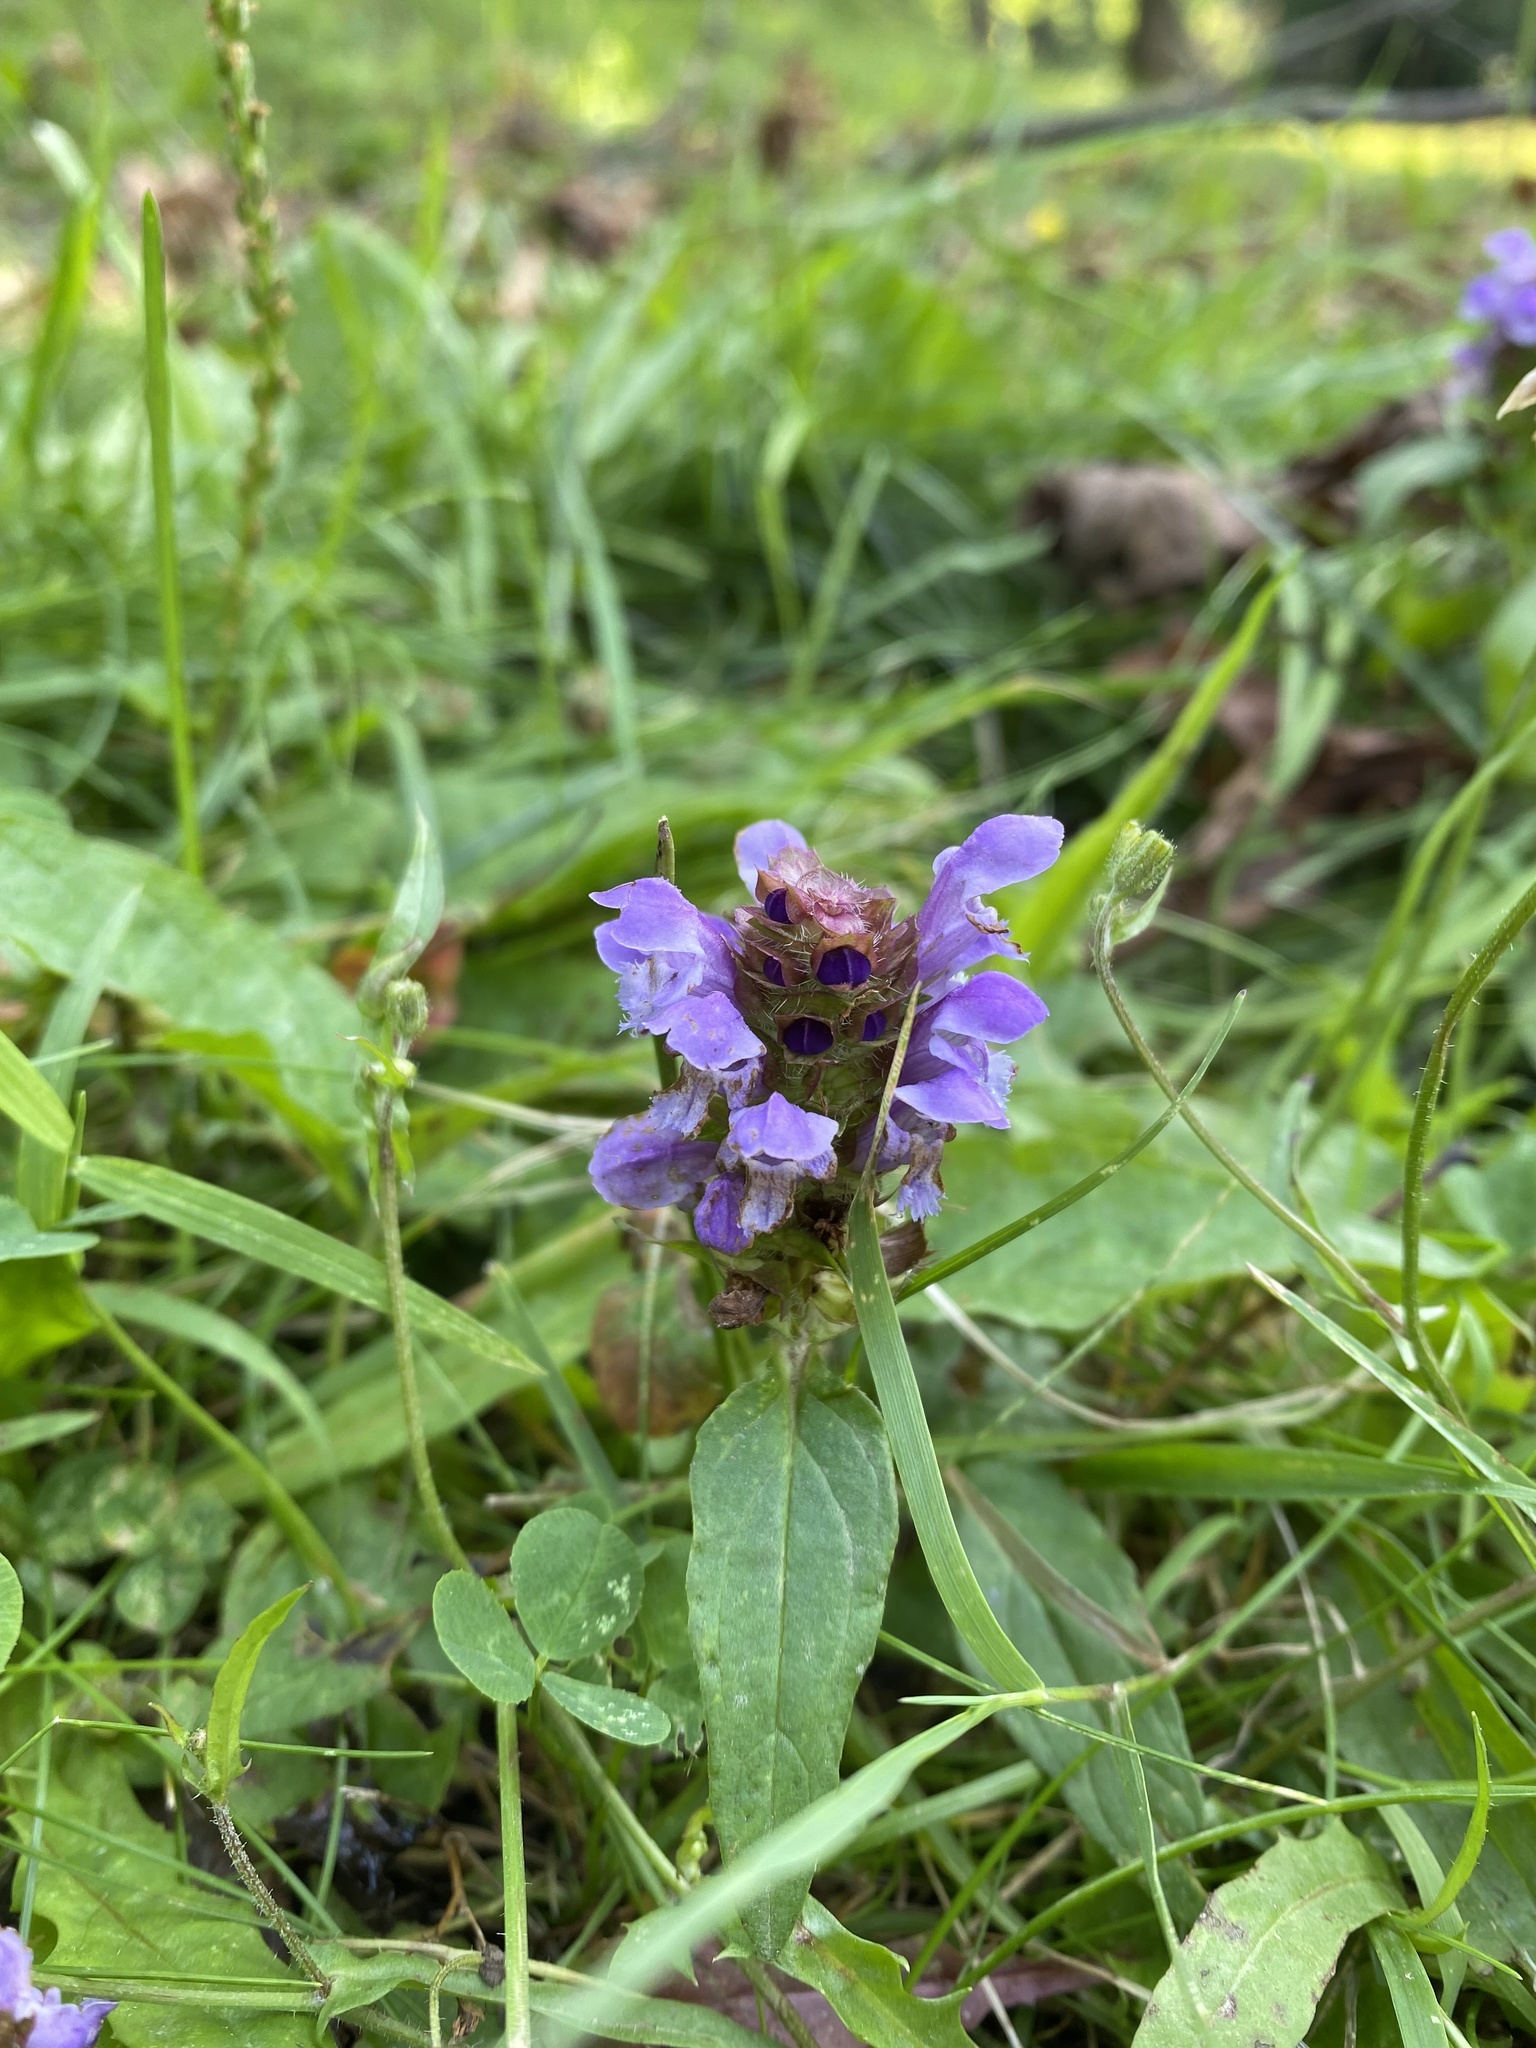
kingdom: Plantae
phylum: Tracheophyta
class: Magnoliopsida
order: Lamiales
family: Lamiaceae
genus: Prunella
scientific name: Prunella vulgaris
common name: Heal-all
